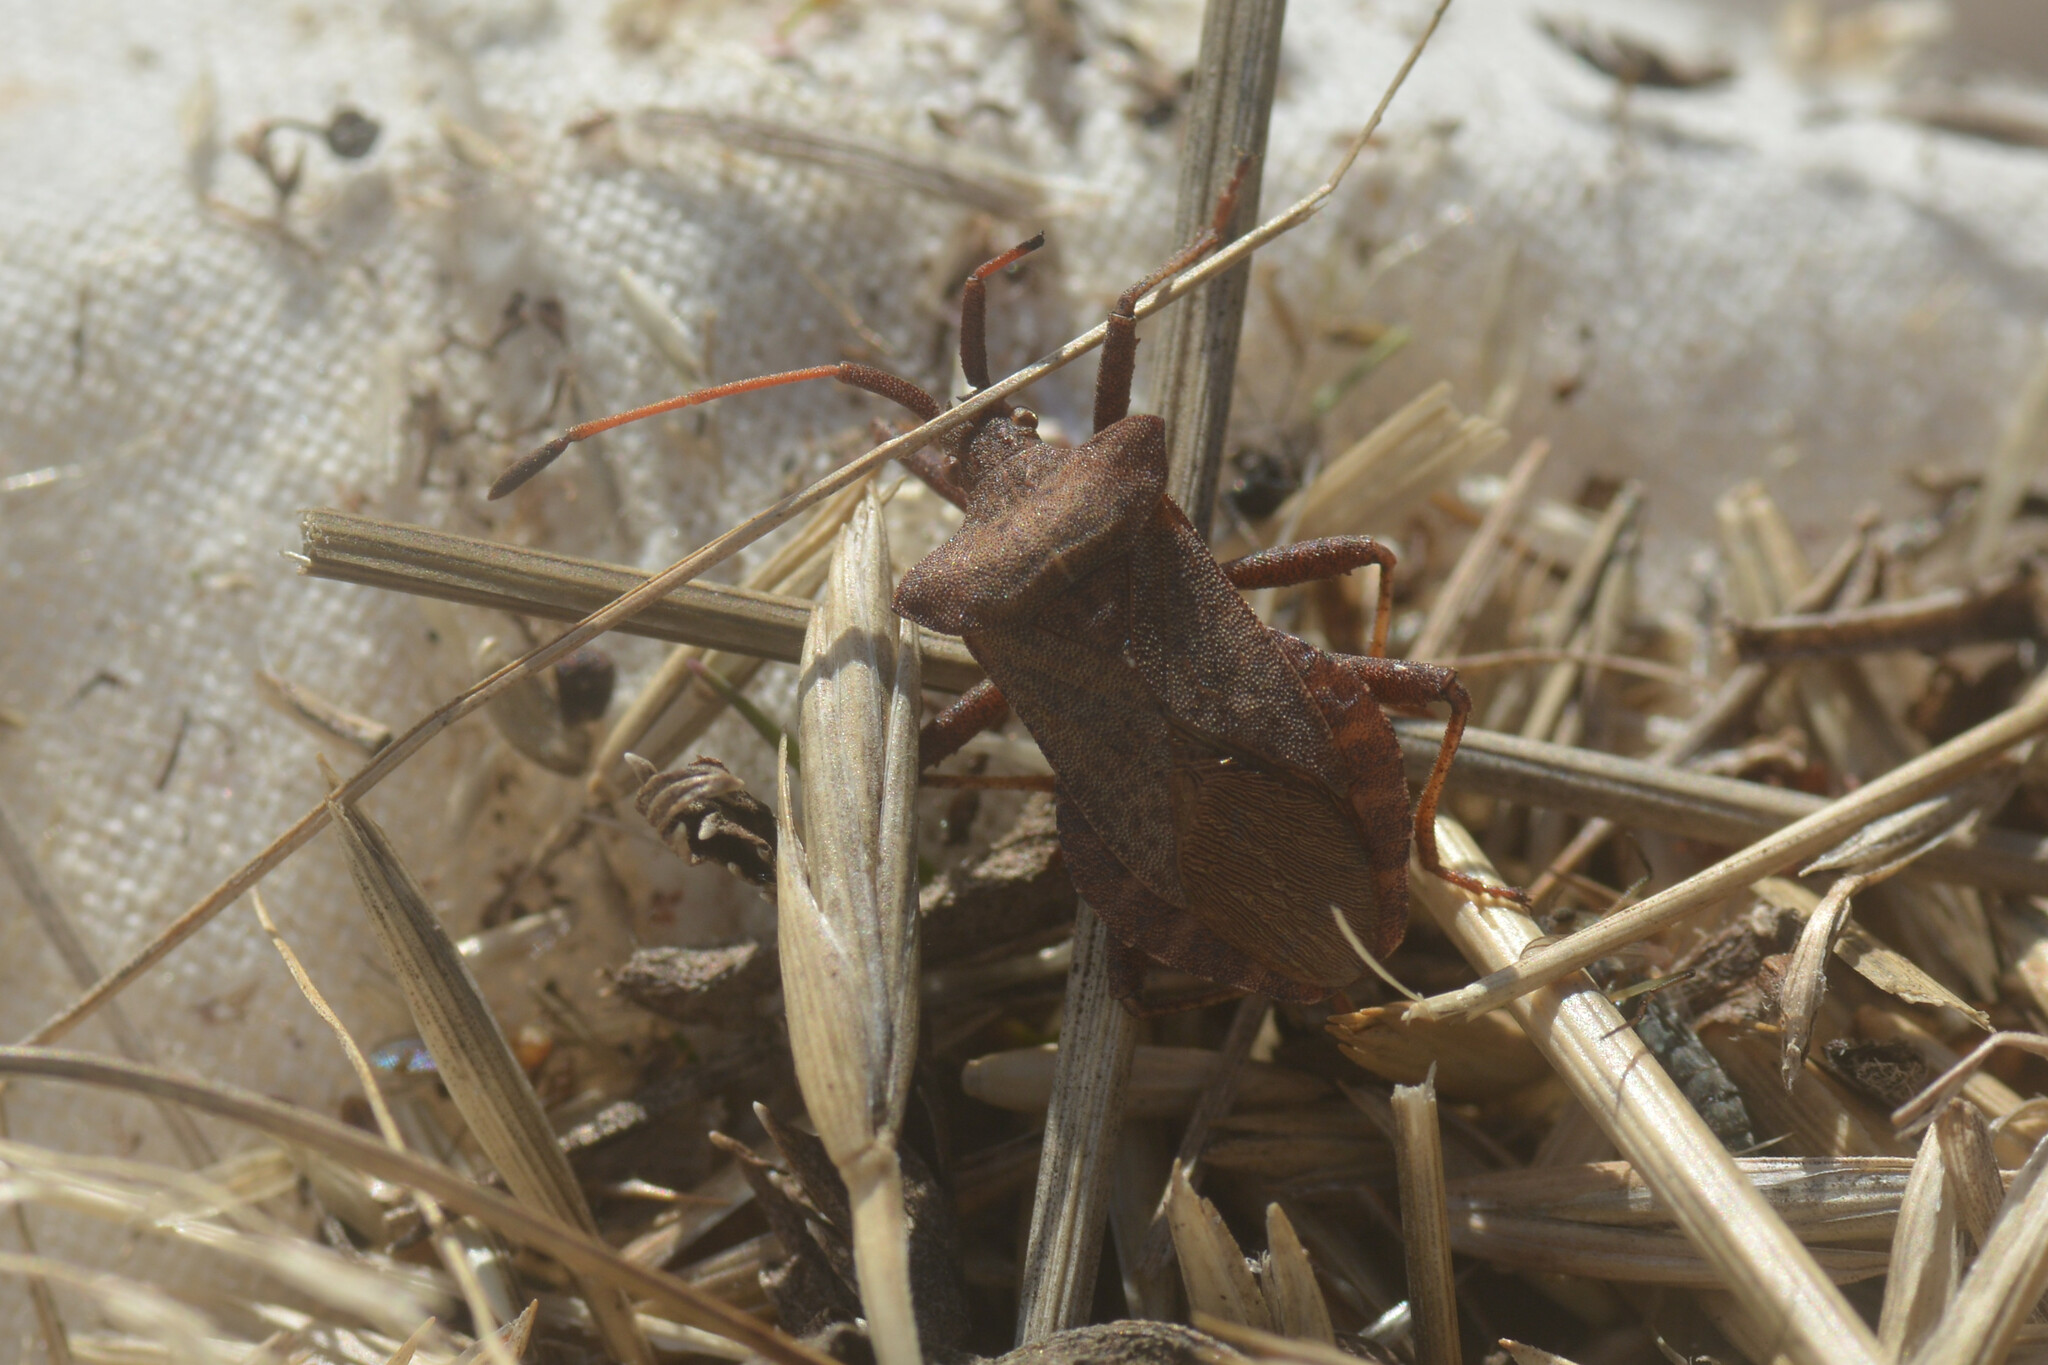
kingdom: Animalia
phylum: Arthropoda
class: Insecta
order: Hemiptera
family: Coreidae
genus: Coreus
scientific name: Coreus marginatus
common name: Dock bug
